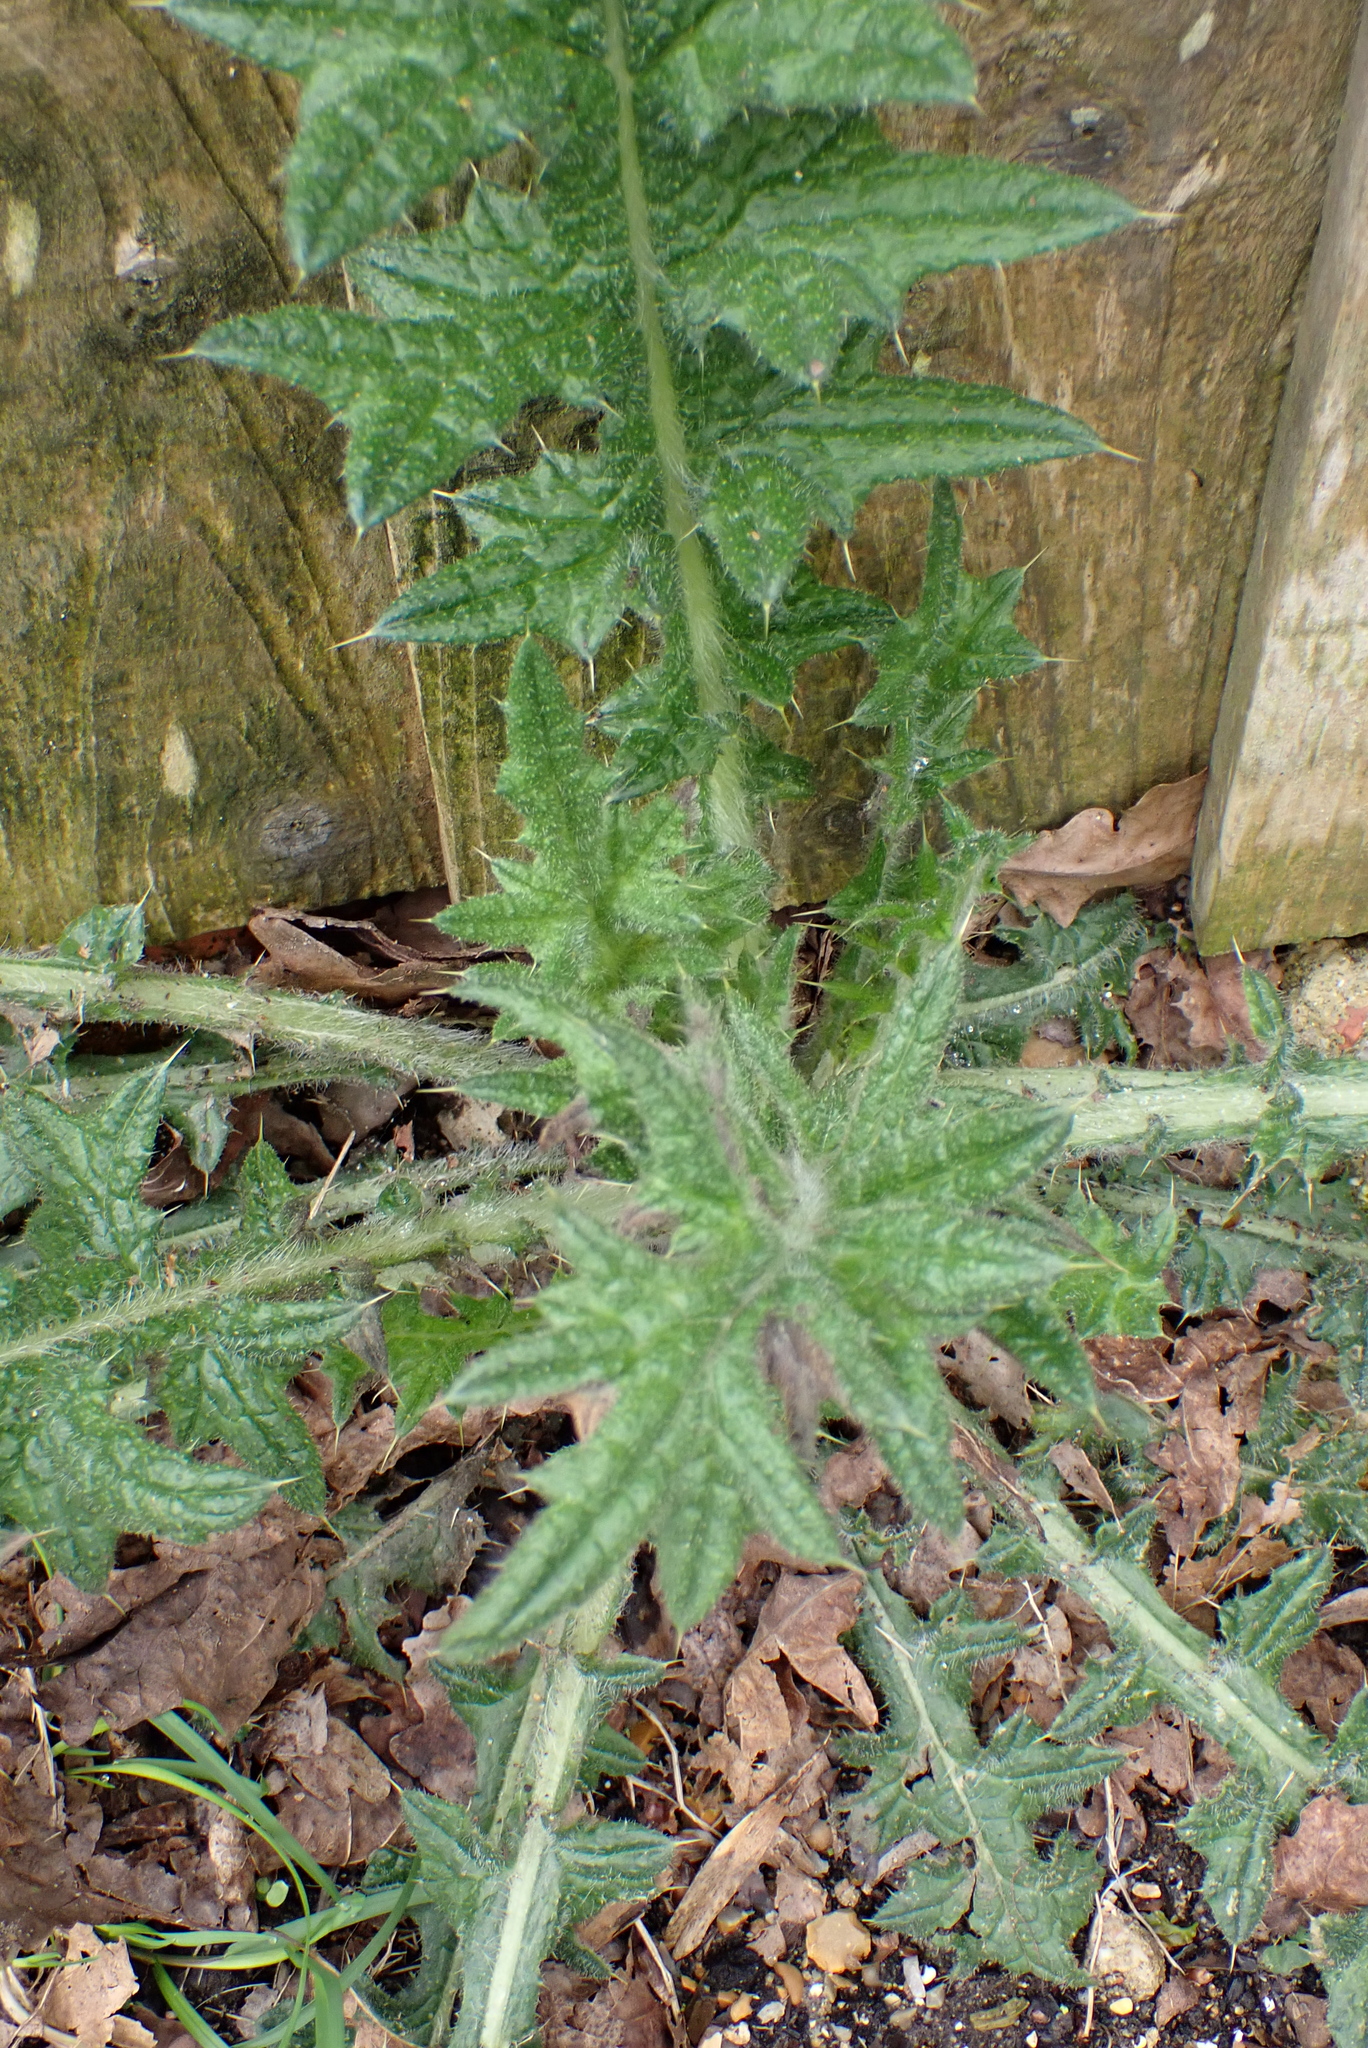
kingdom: Plantae
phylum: Tracheophyta
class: Magnoliopsida
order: Asterales
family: Asteraceae
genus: Cirsium
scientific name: Cirsium vulgare
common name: Bull thistle
